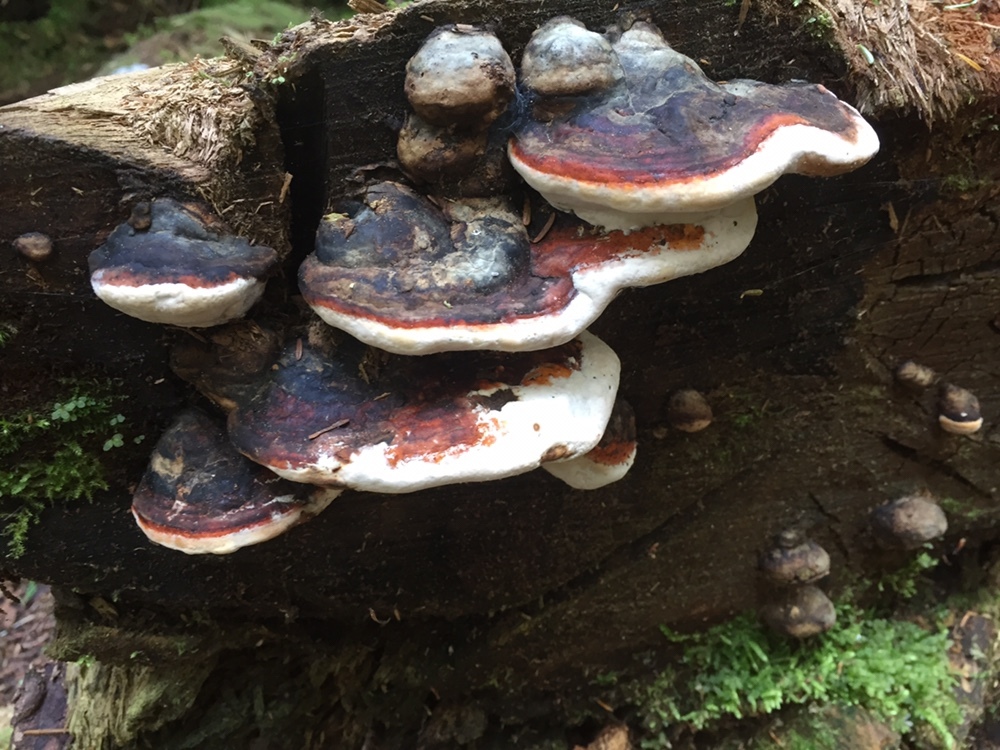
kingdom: Fungi
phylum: Basidiomycota
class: Agaricomycetes
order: Polyporales
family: Fomitopsidaceae
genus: Fomitopsis
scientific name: Fomitopsis mounceae
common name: Northern red belt
